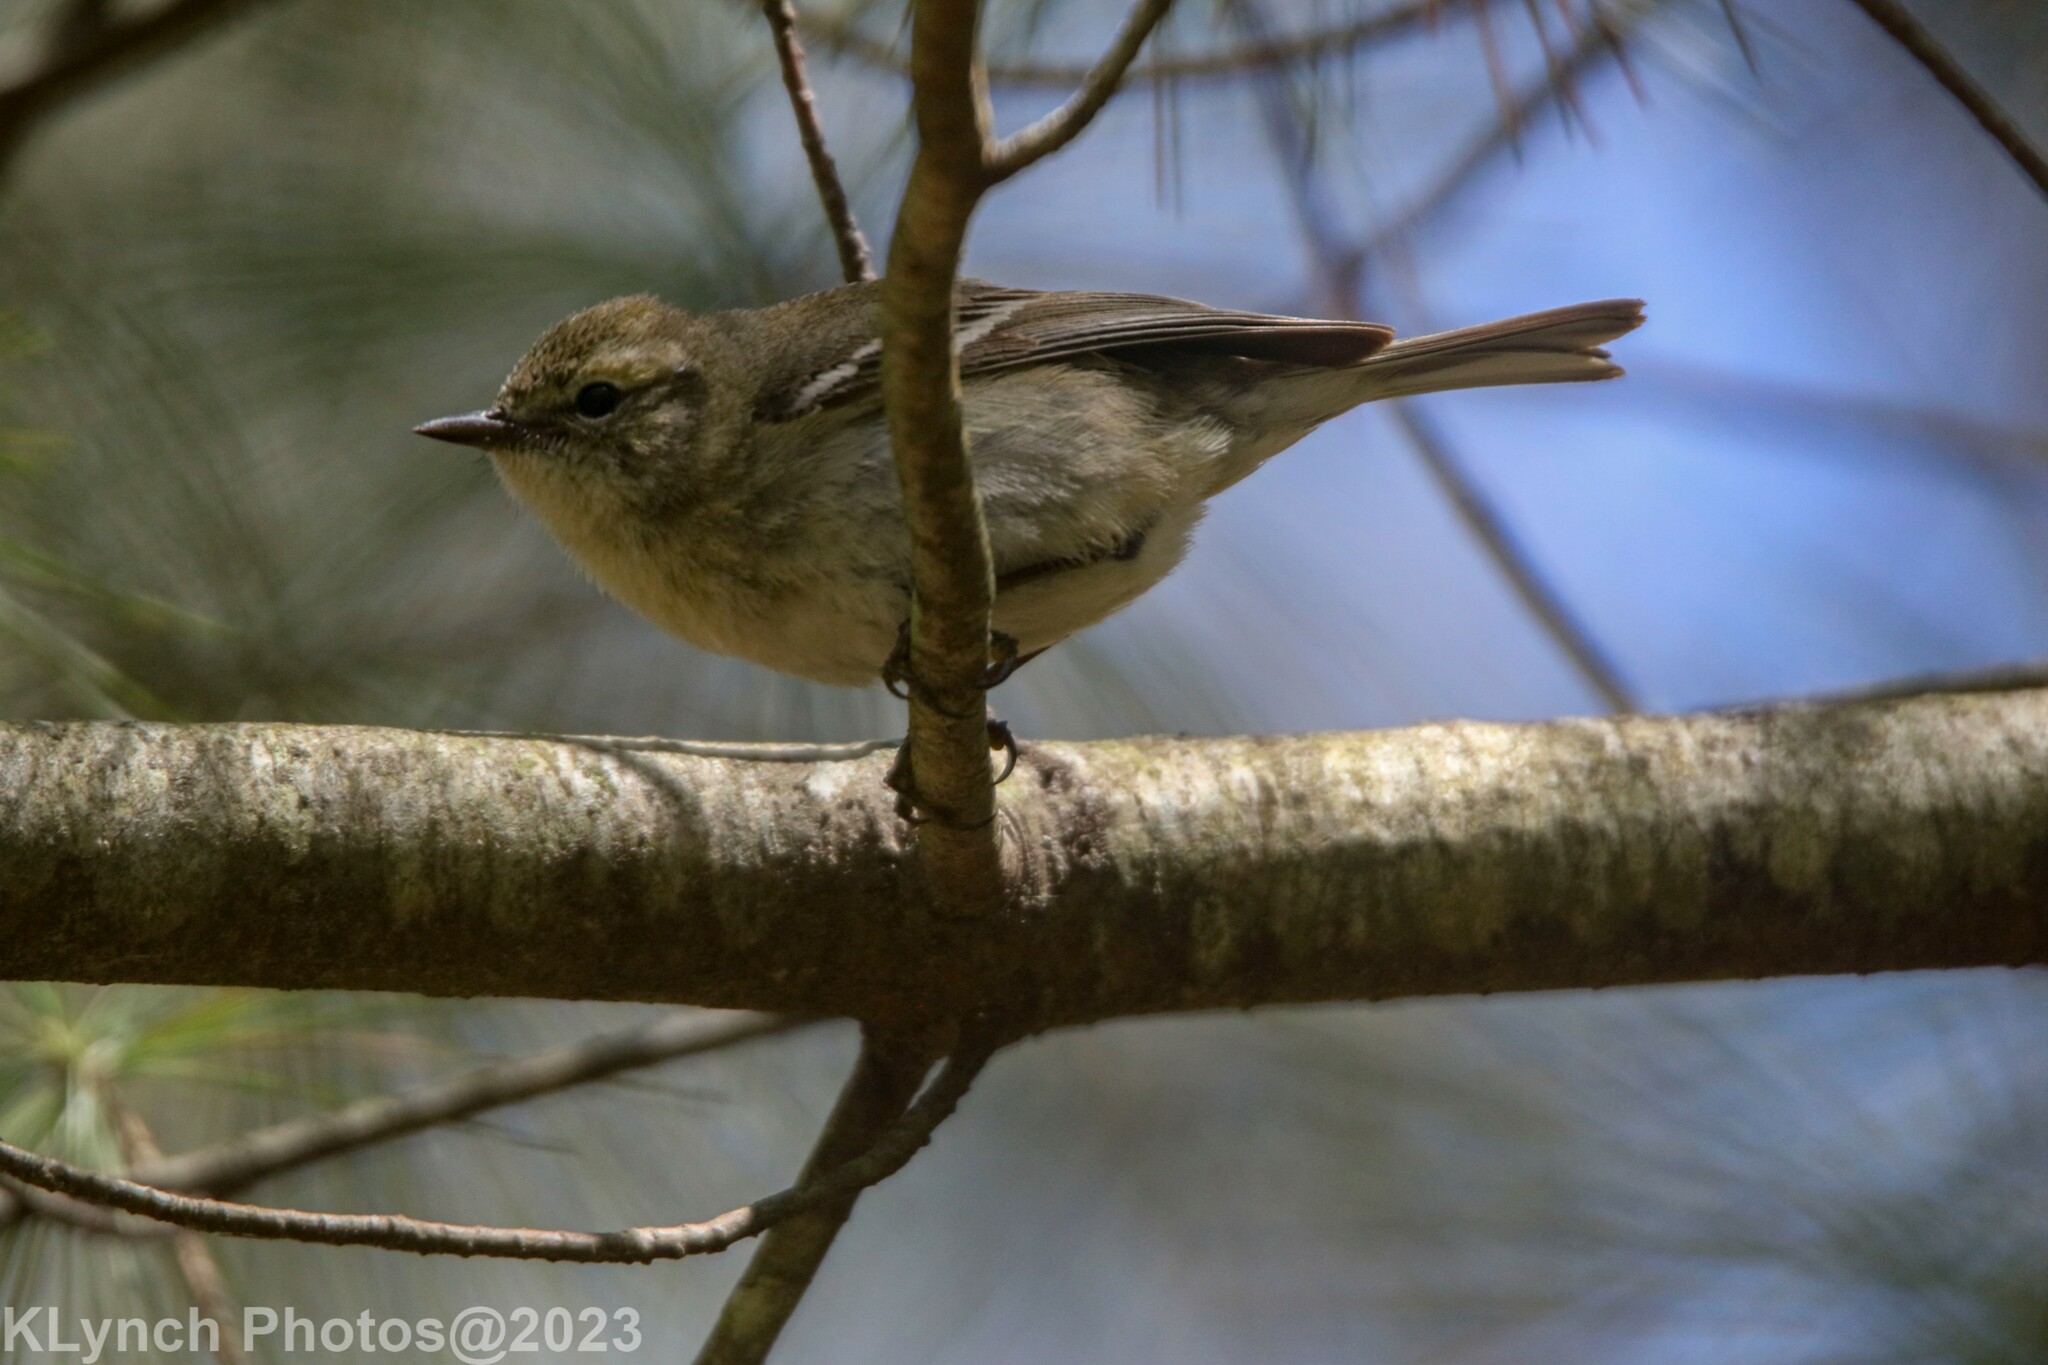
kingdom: Animalia
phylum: Chordata
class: Aves
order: Passeriformes
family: Parulidae
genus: Setophaga
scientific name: Setophaga pinus
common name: Pine warbler
